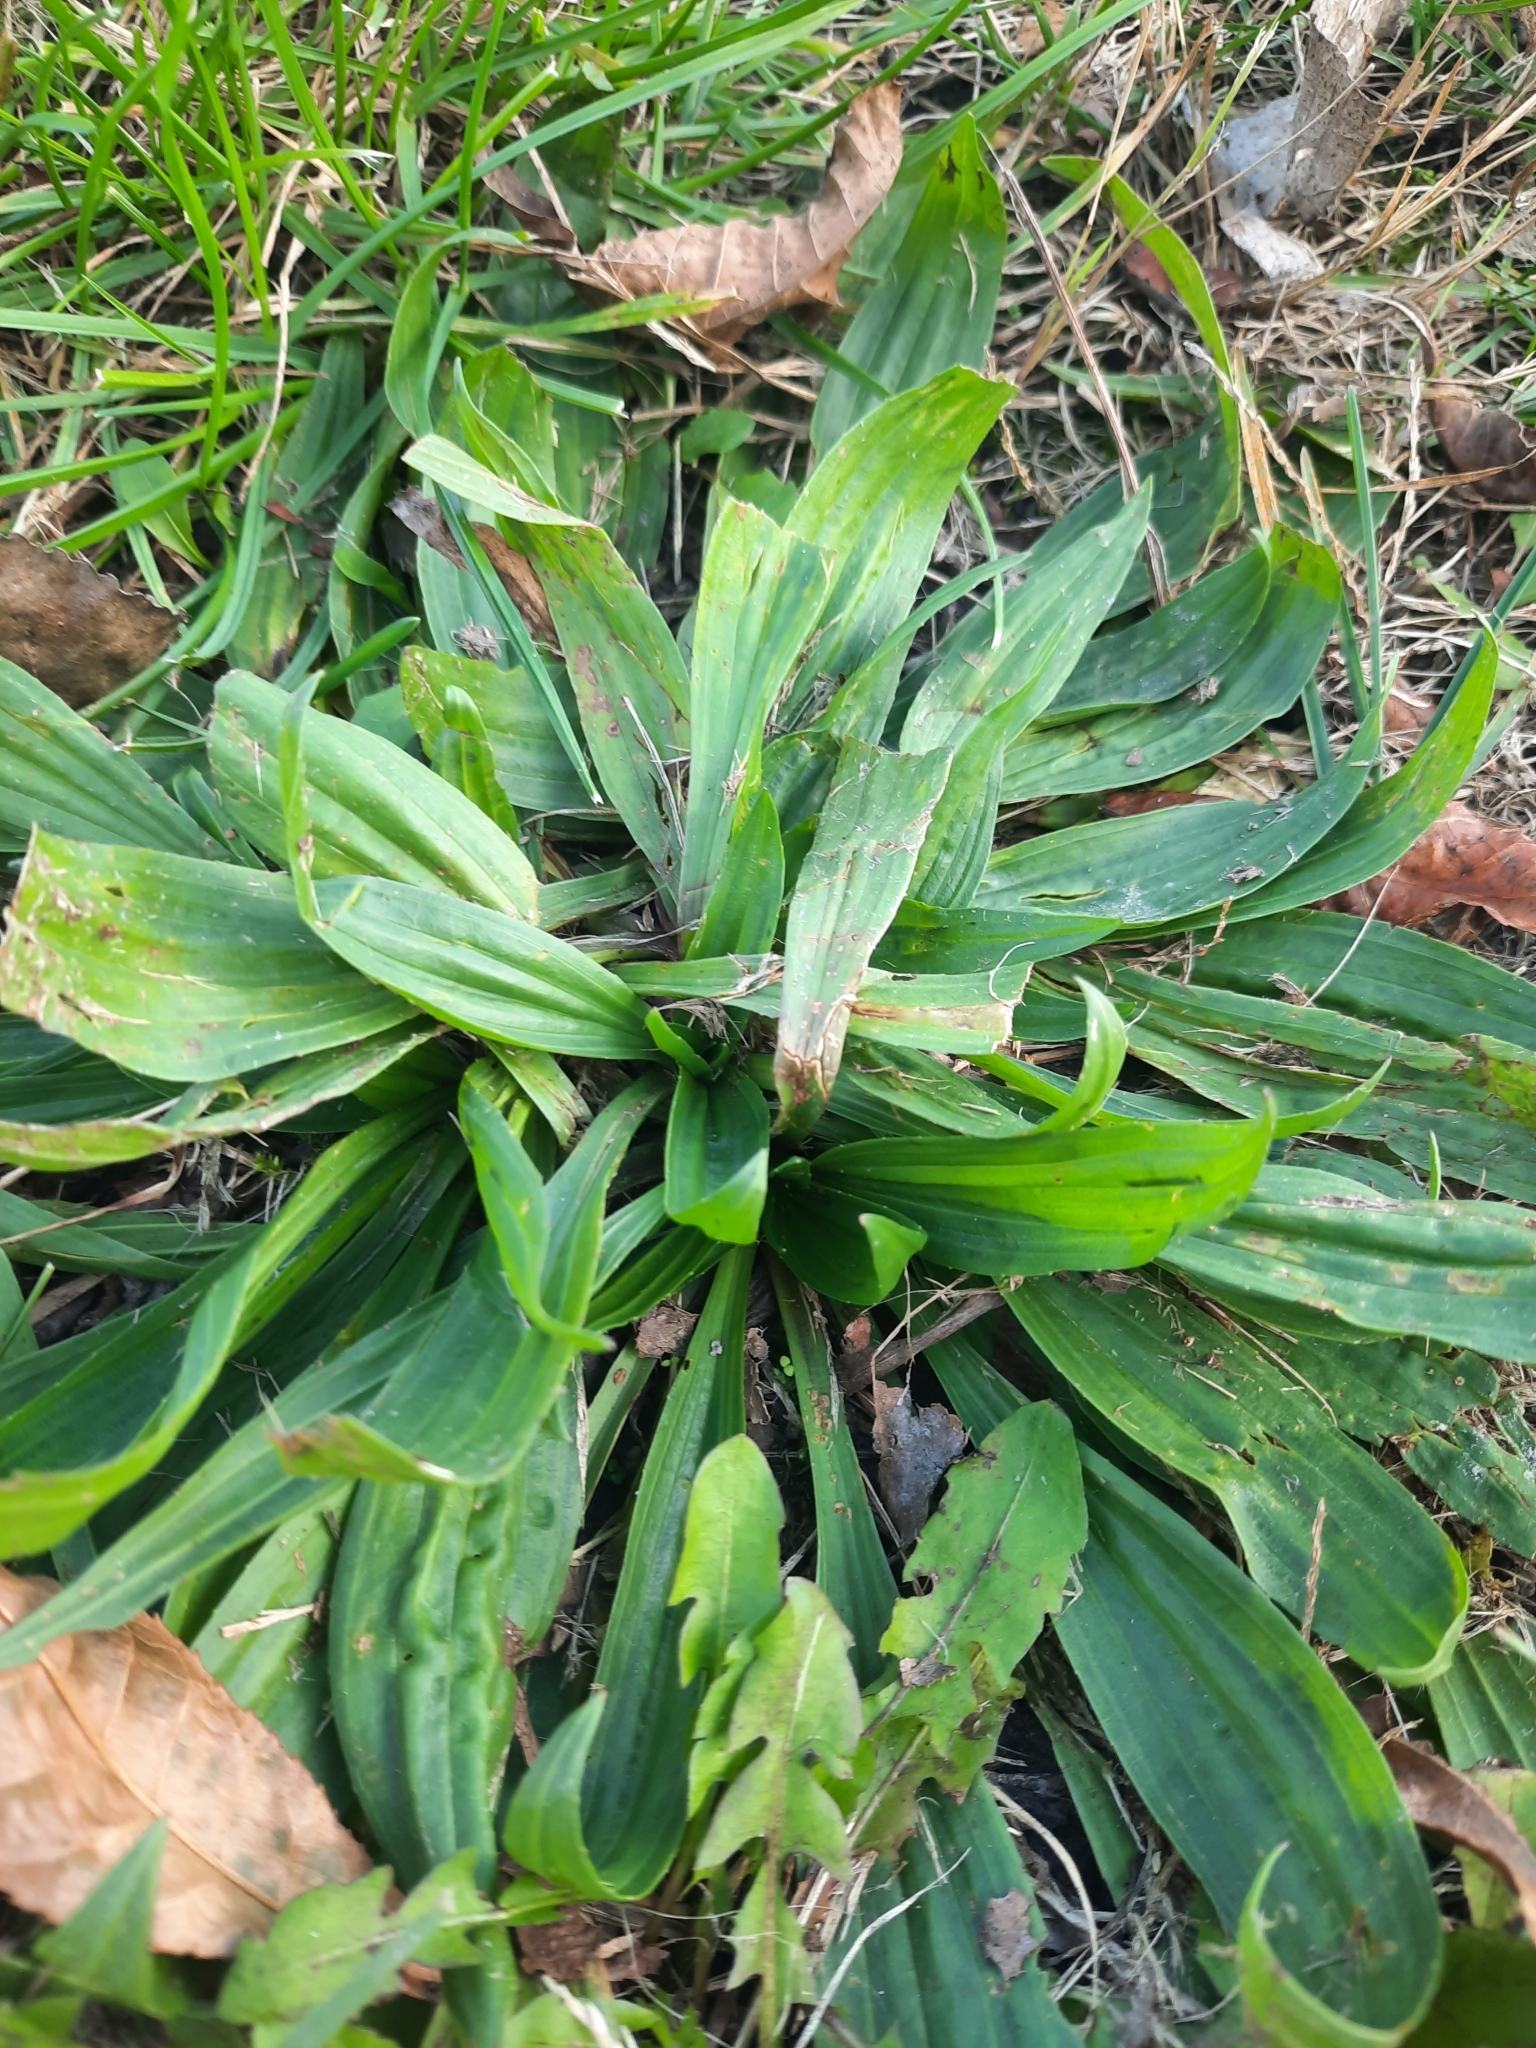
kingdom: Plantae
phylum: Tracheophyta
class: Magnoliopsida
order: Lamiales
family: Plantaginaceae
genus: Plantago
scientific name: Plantago lanceolata
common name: Ribwort plantain
